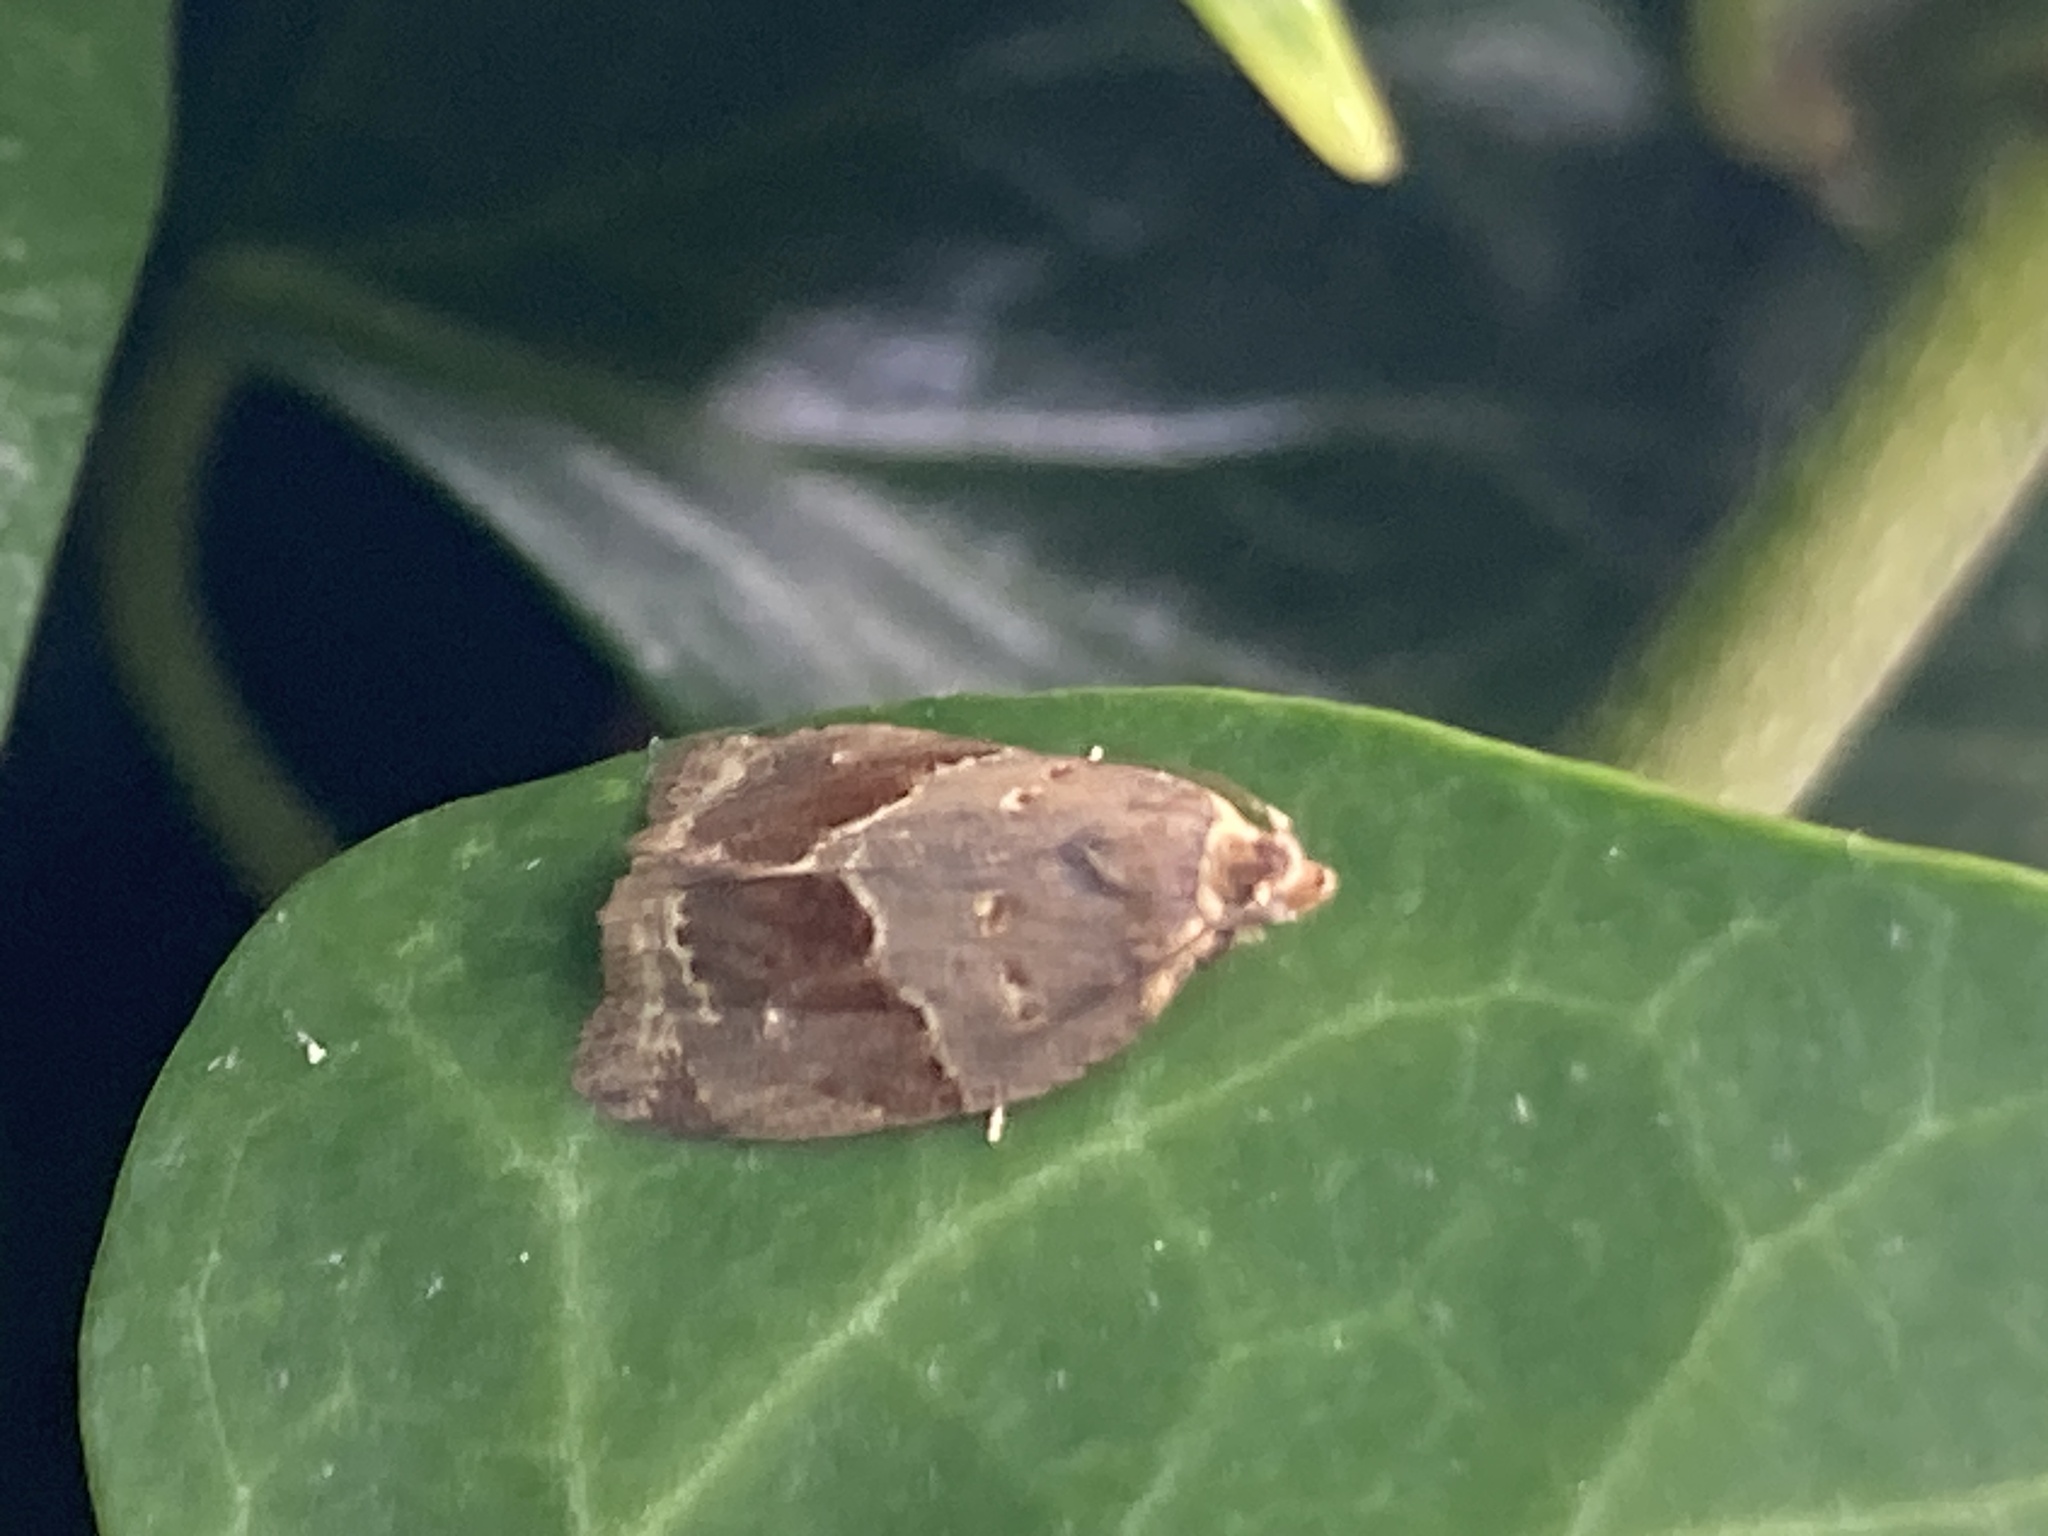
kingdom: Animalia
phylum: Arthropoda
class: Insecta
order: Lepidoptera
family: Tortricidae
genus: Clepsis
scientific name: Clepsis dumicolana
